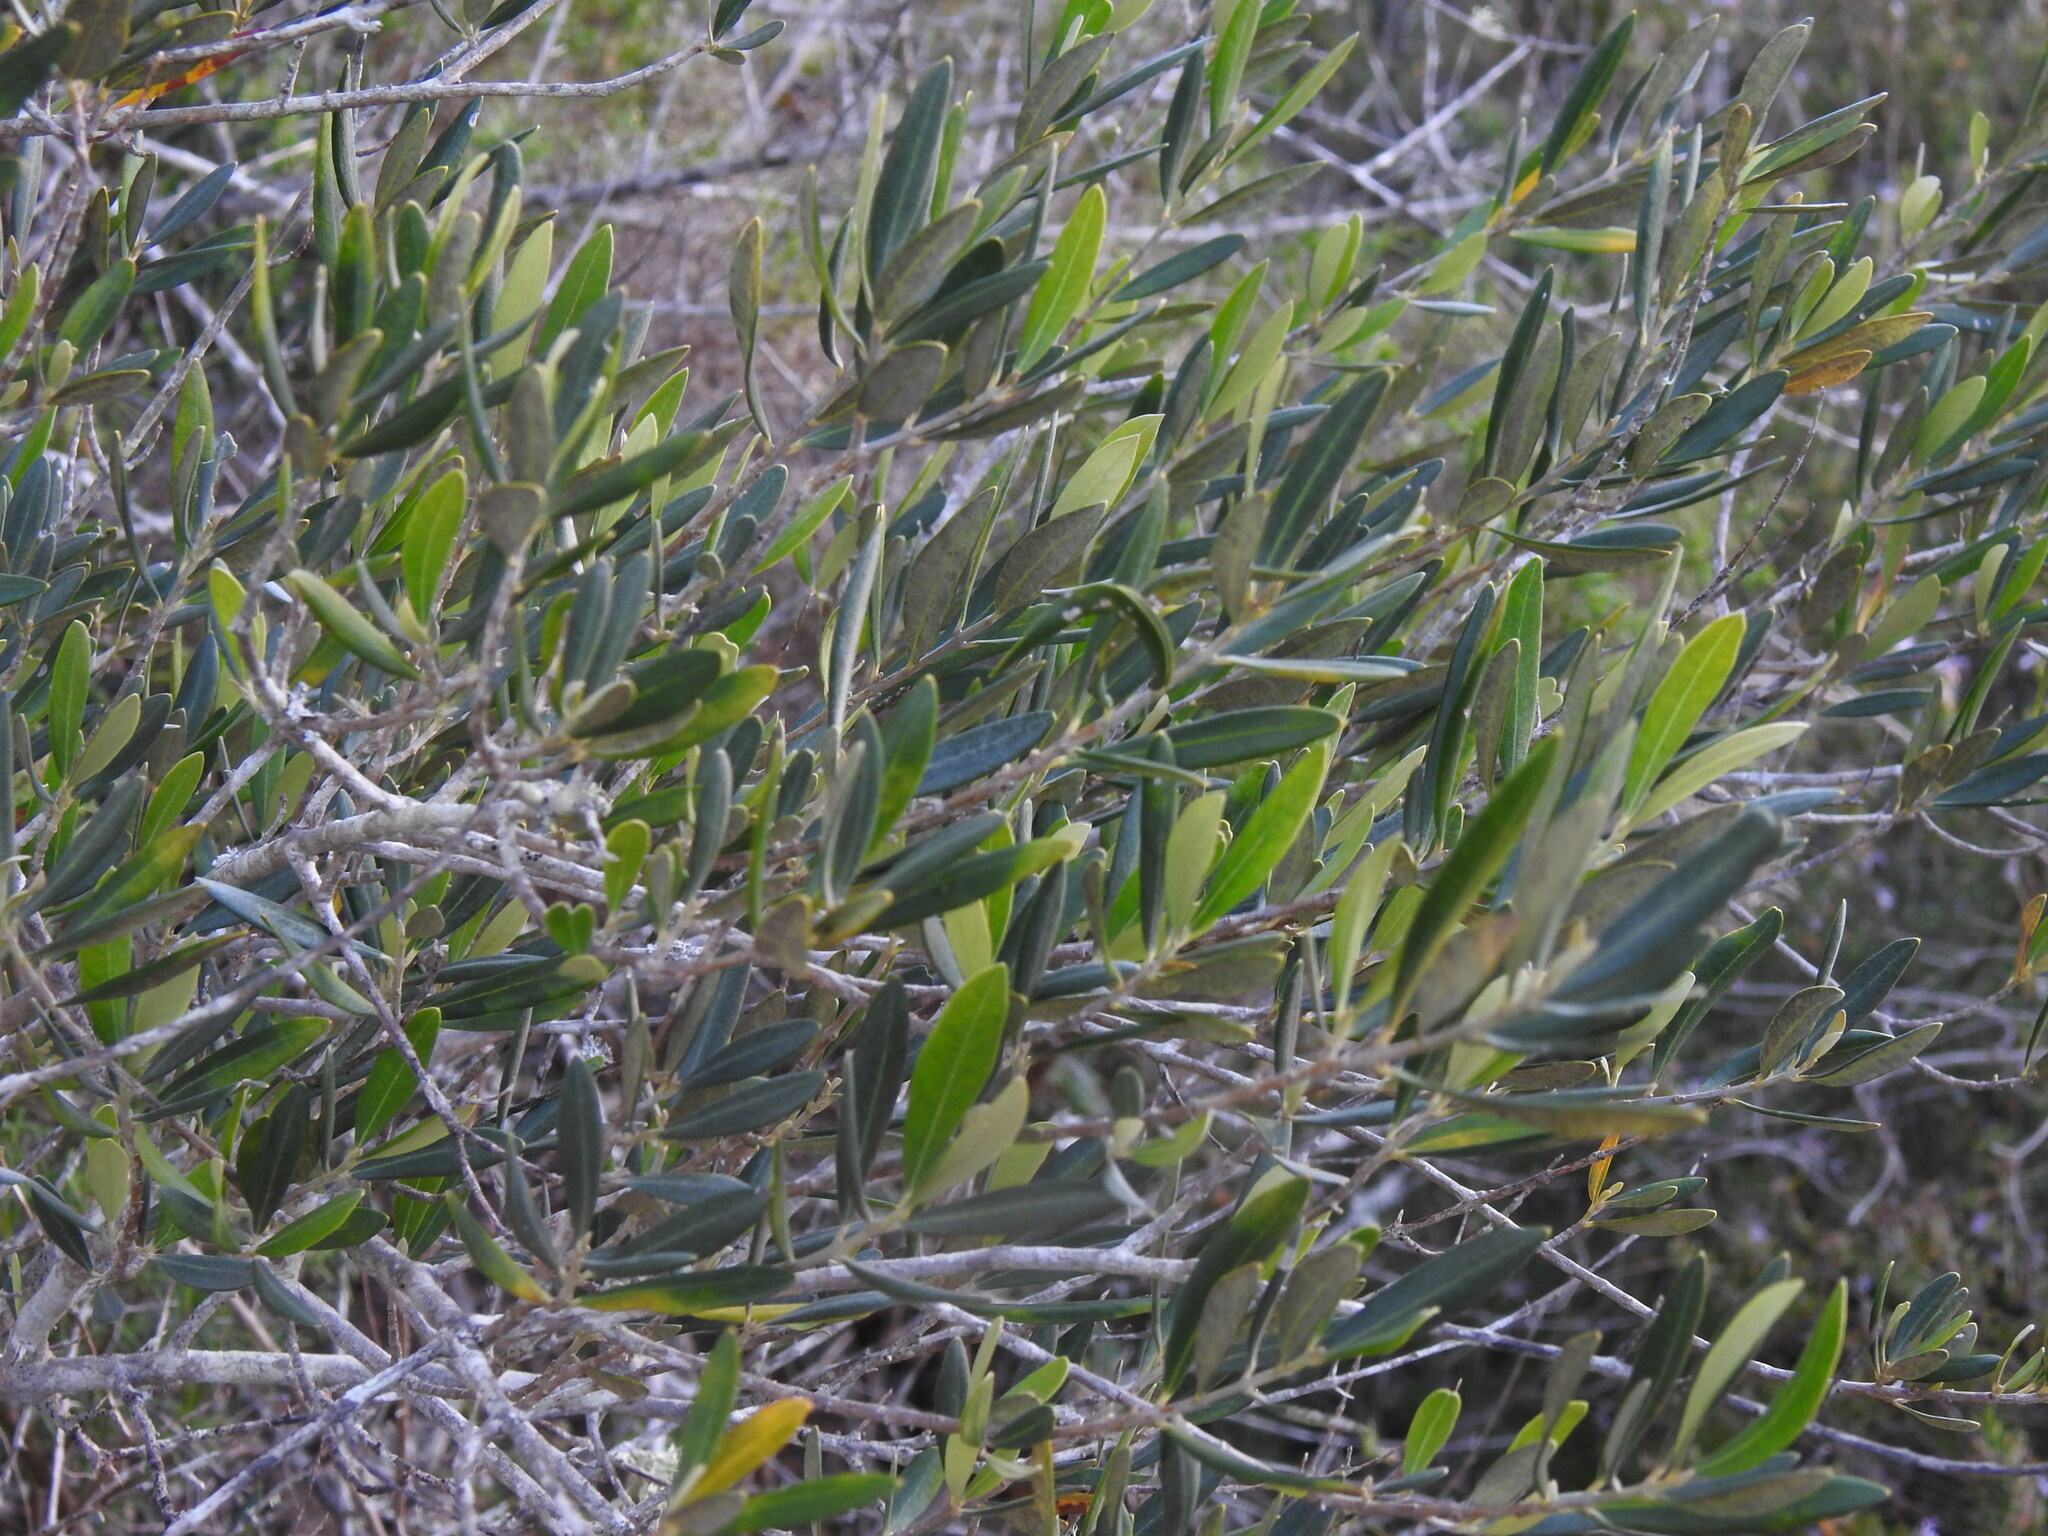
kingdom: Plantae
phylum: Tracheophyta
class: Magnoliopsida
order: Lamiales
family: Oleaceae
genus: Olea
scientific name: Olea europaea
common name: Olive
